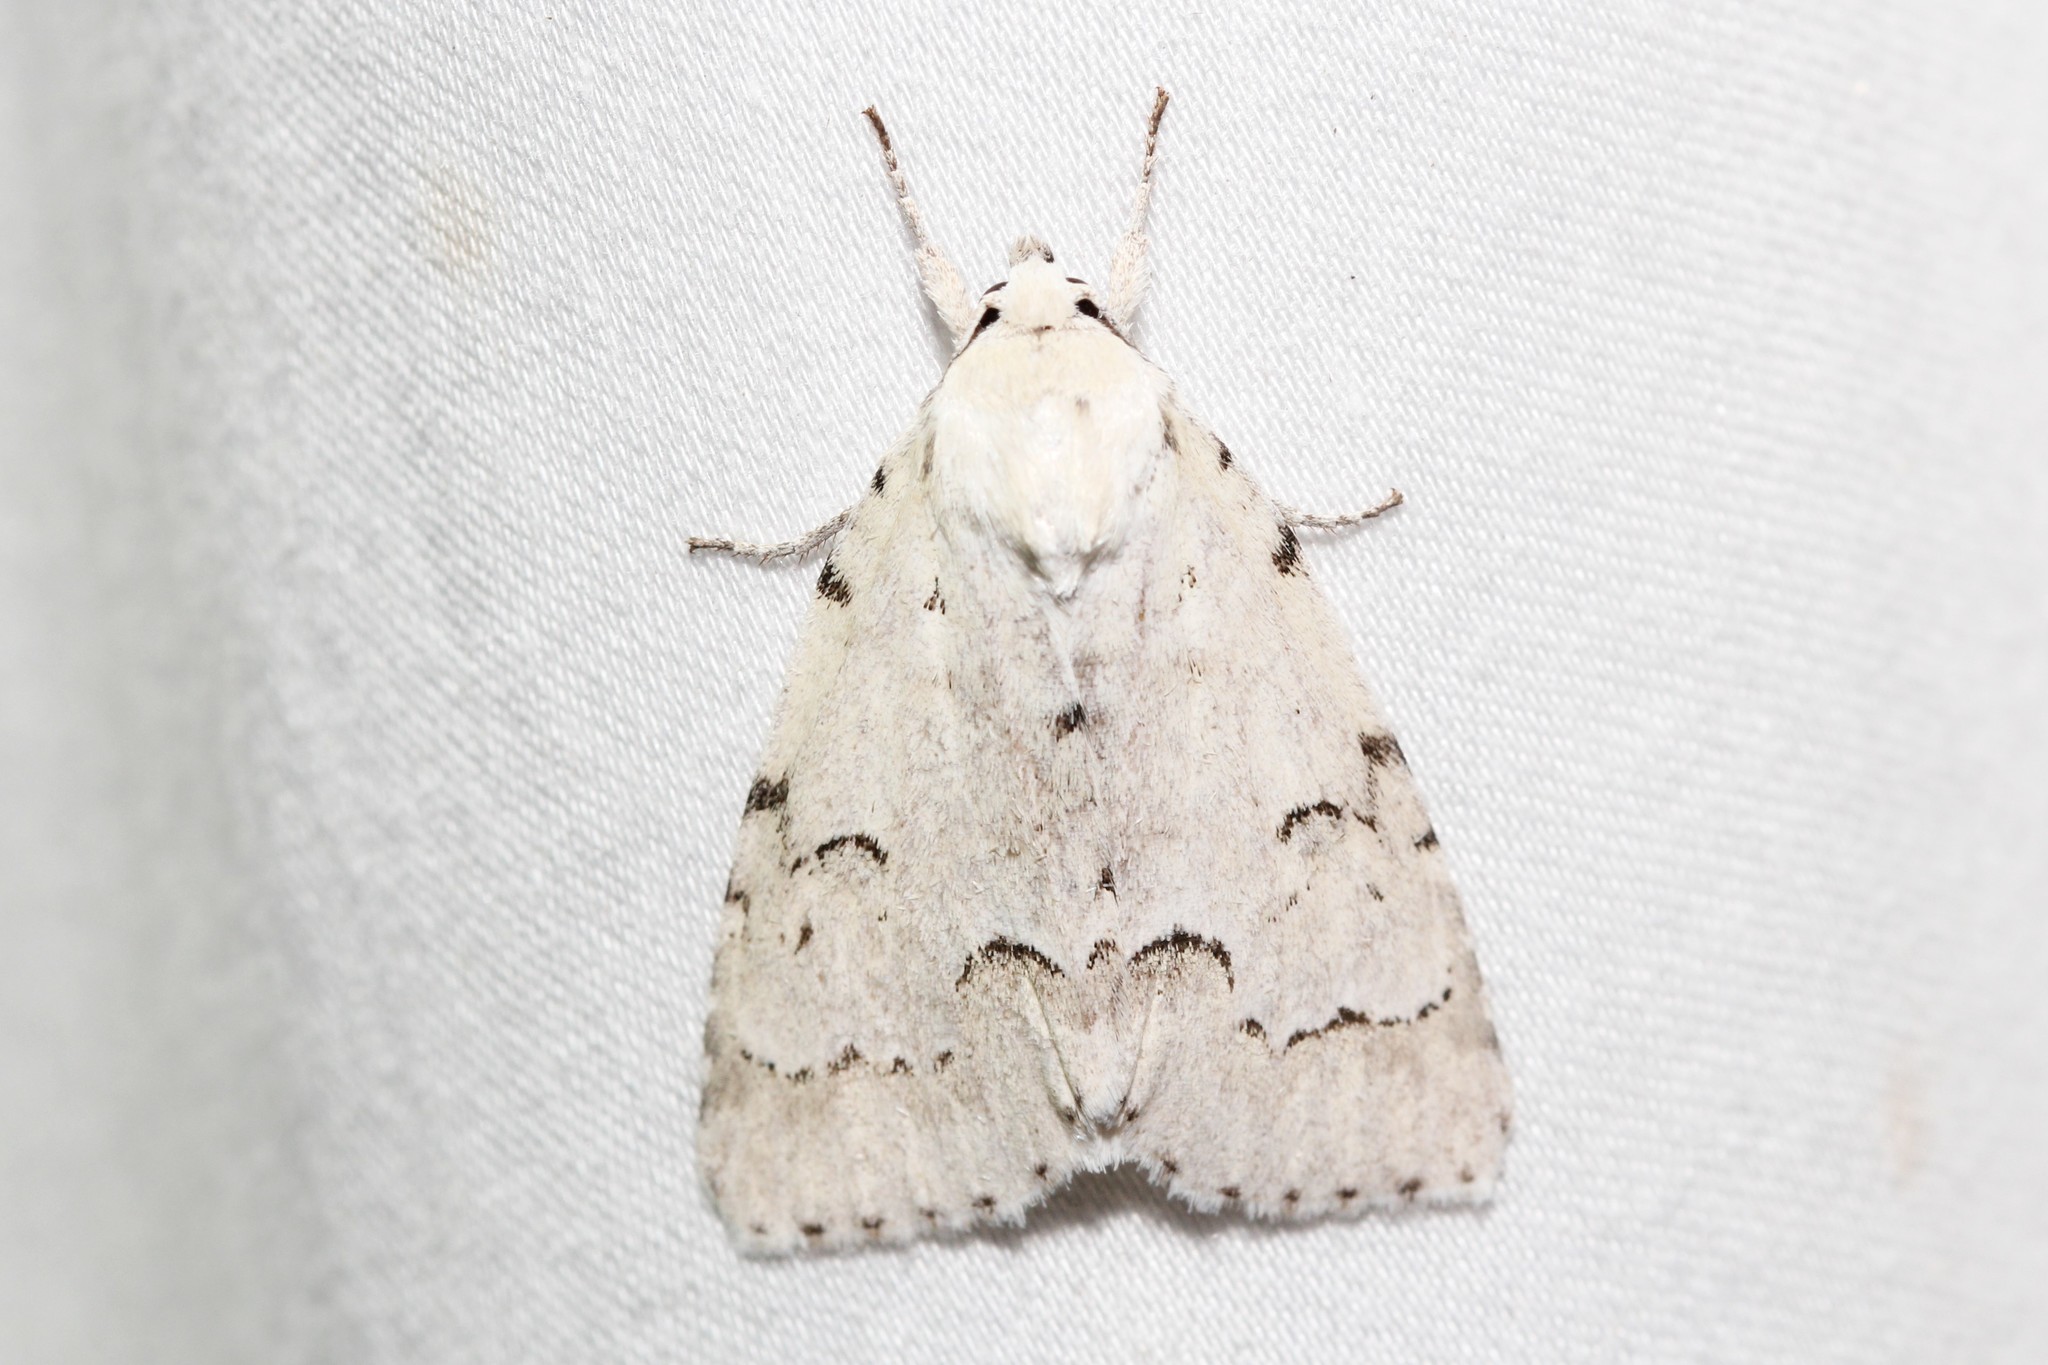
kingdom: Animalia
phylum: Arthropoda
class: Insecta
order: Lepidoptera
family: Noctuidae
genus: Acronicta
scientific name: Acronicta innotata
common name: Unmarked dagger
